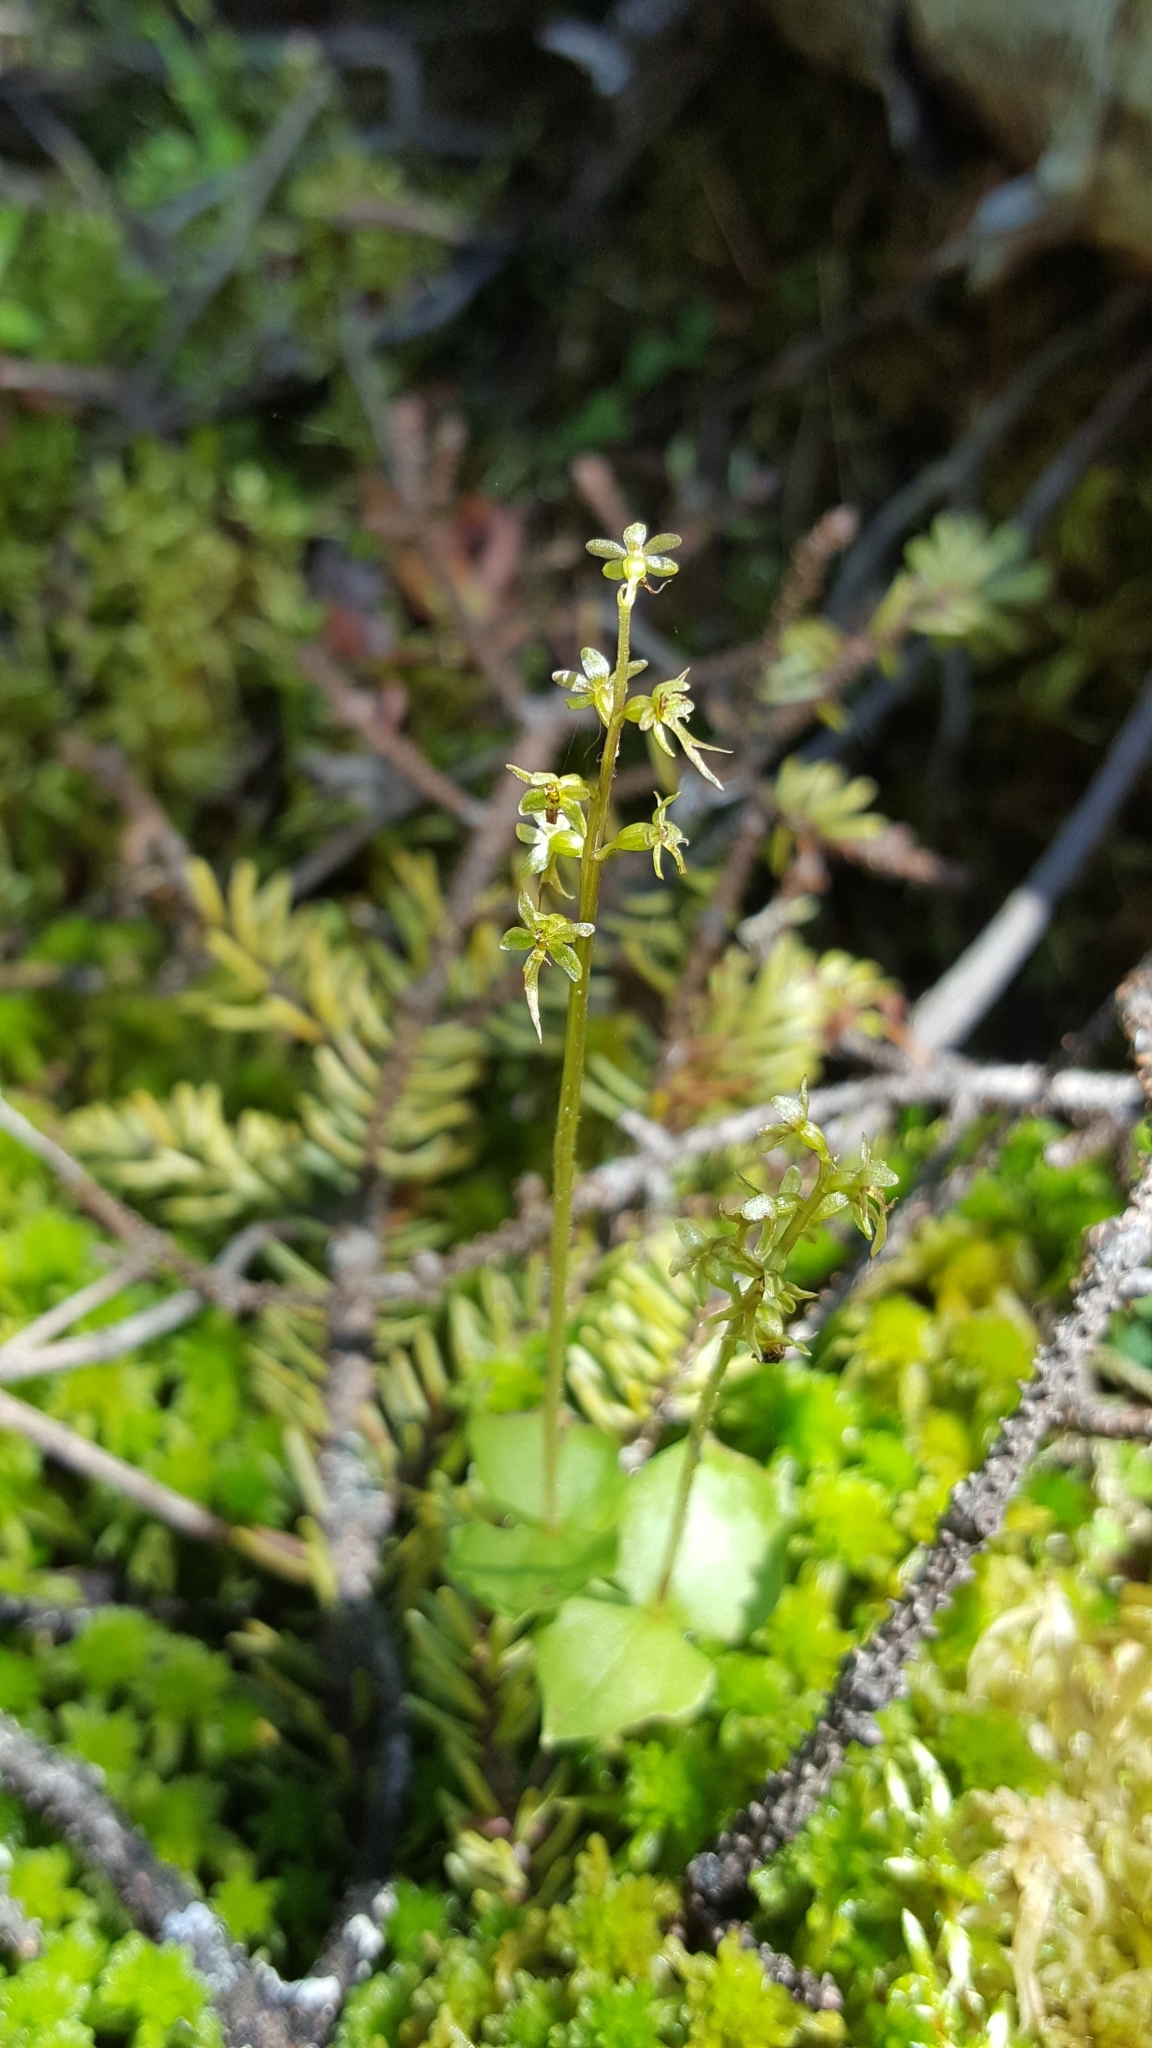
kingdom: Plantae
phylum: Tracheophyta
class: Liliopsida
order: Asparagales
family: Orchidaceae
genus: Neottia
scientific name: Neottia cordata
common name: Lesser twayblade
